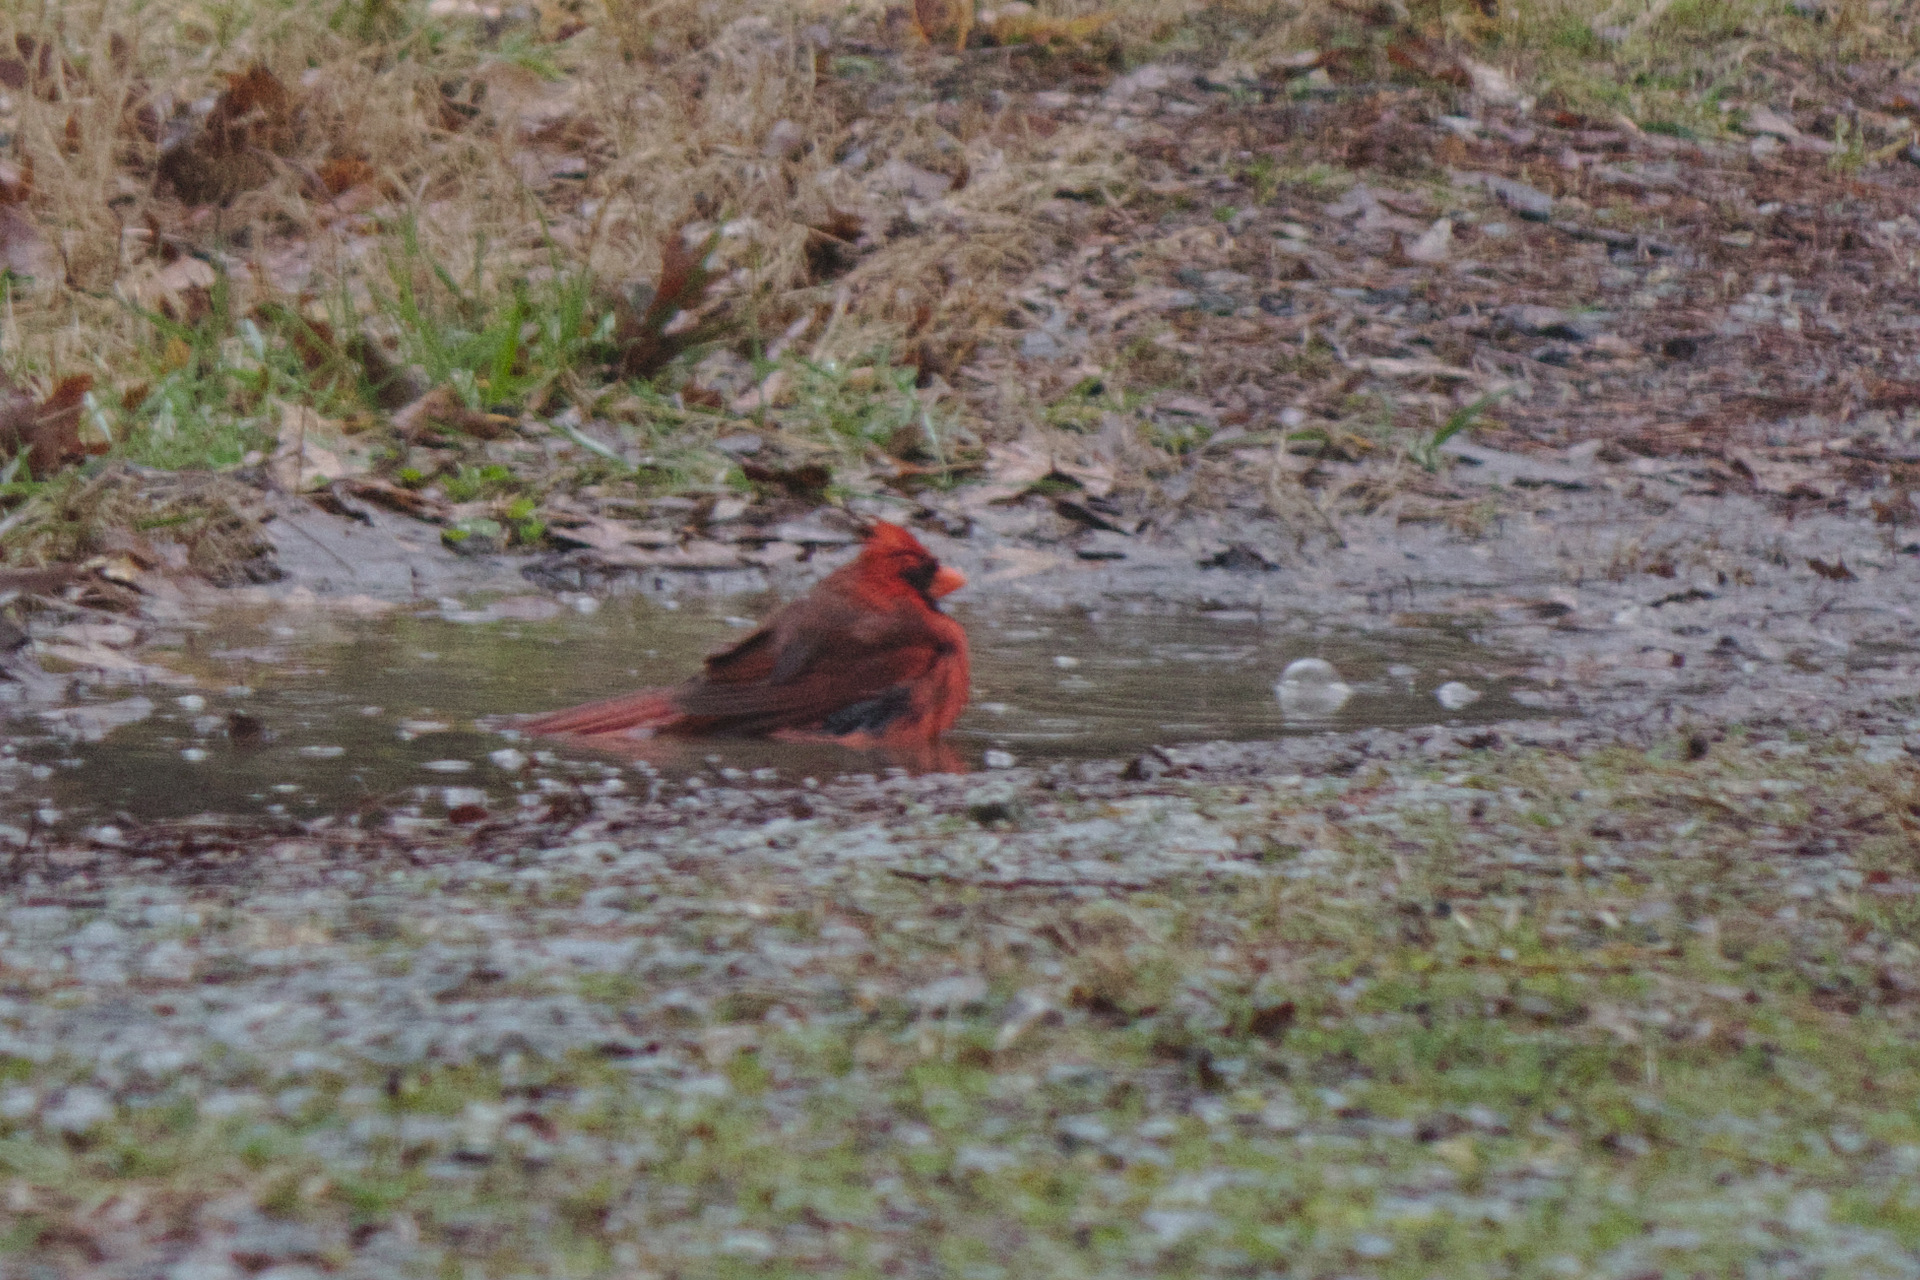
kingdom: Animalia
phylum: Chordata
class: Aves
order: Passeriformes
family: Cardinalidae
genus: Cardinalis
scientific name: Cardinalis cardinalis
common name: Northern cardinal
